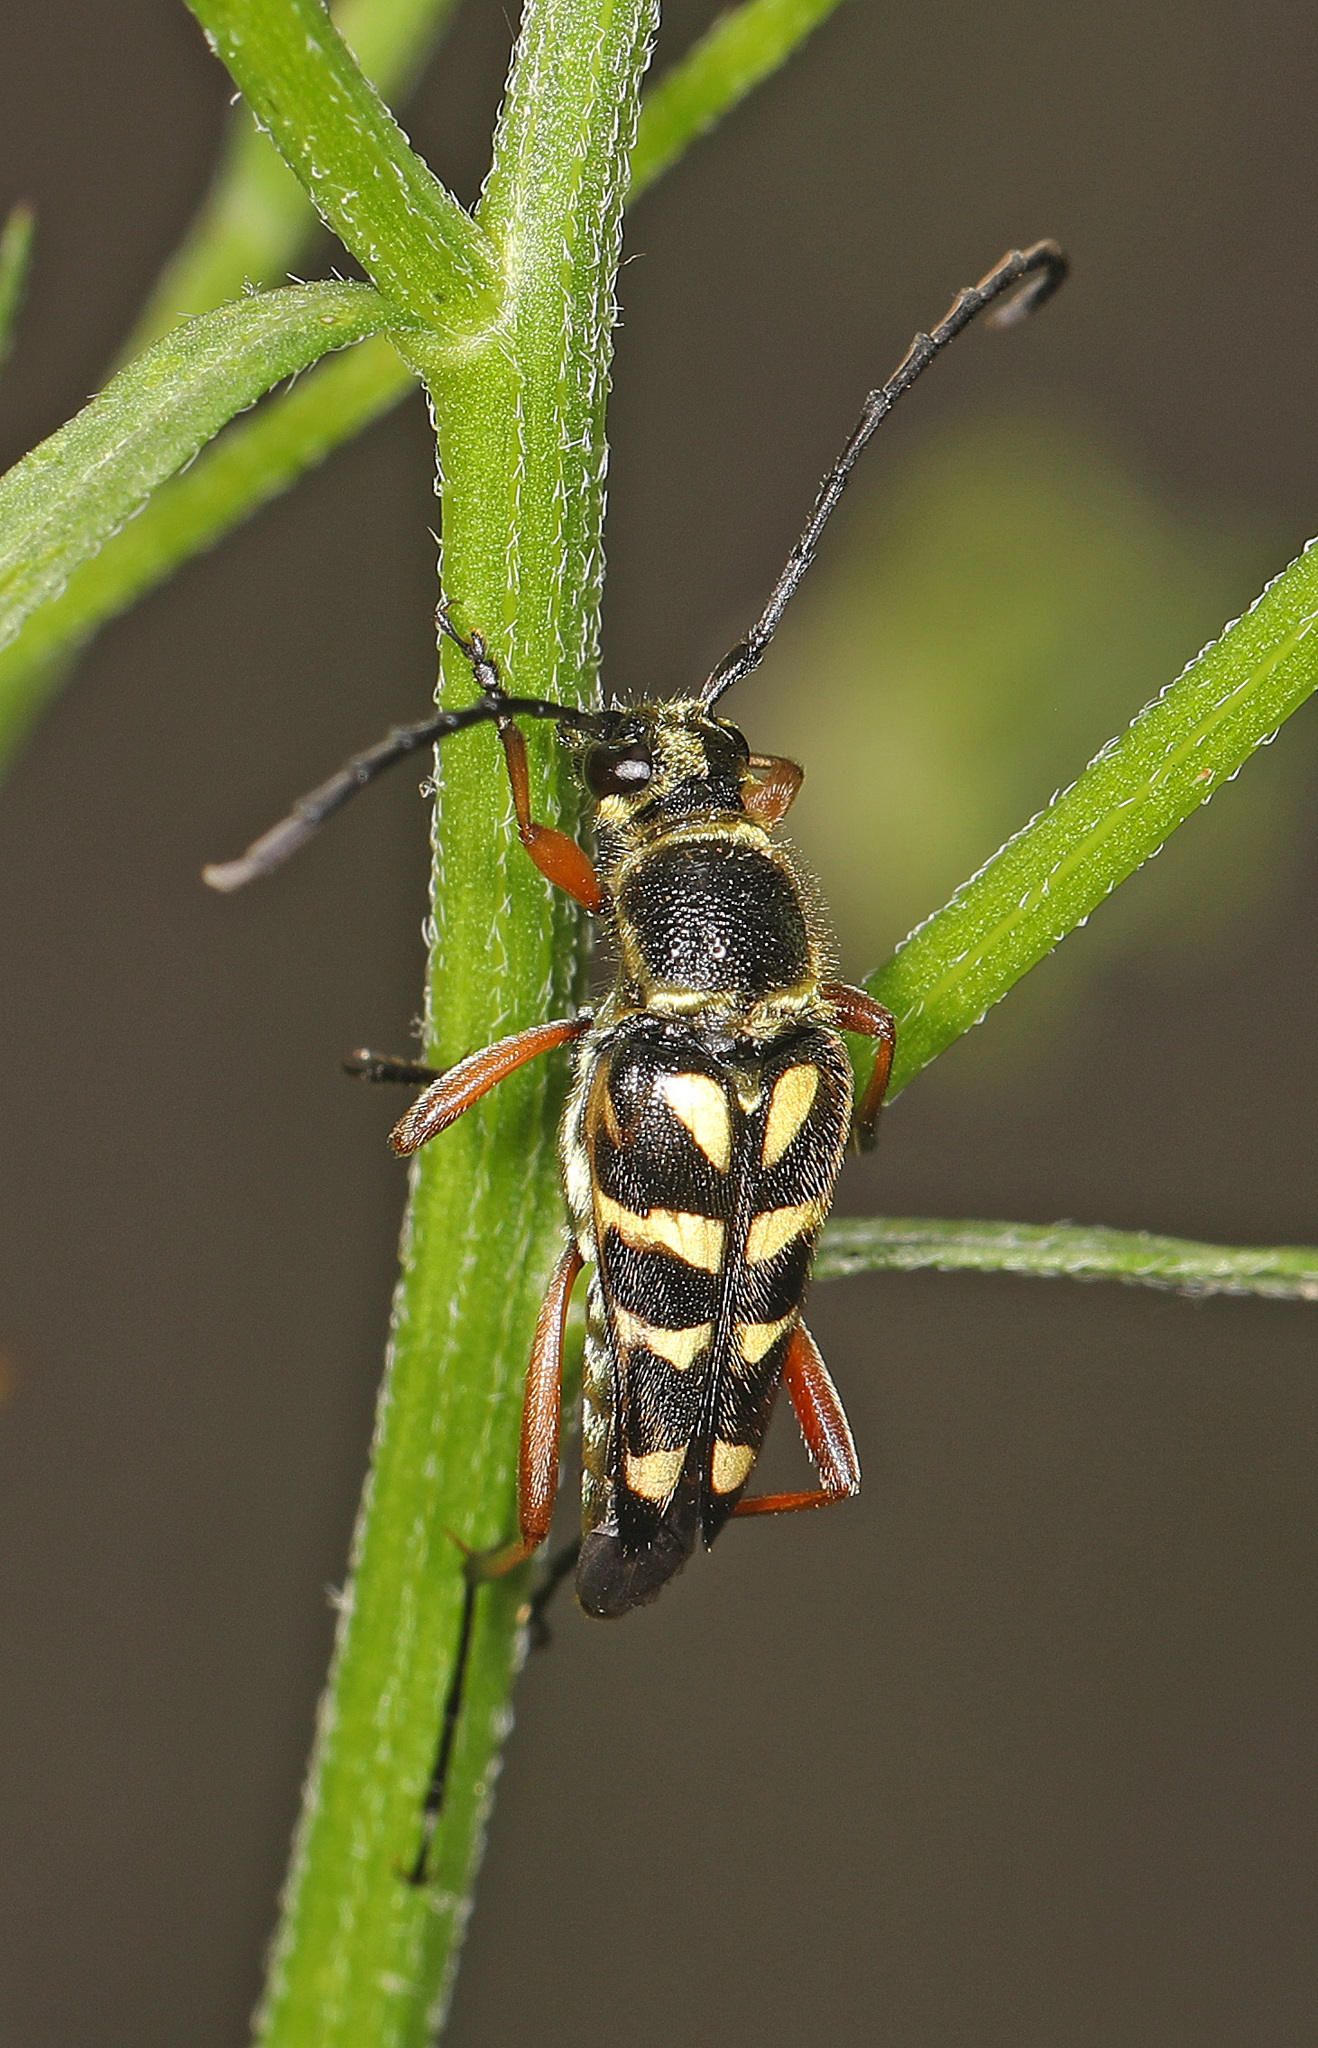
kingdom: Animalia
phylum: Arthropoda
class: Insecta
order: Coleoptera
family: Cerambycidae
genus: Typocerus
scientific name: Typocerus zebra
